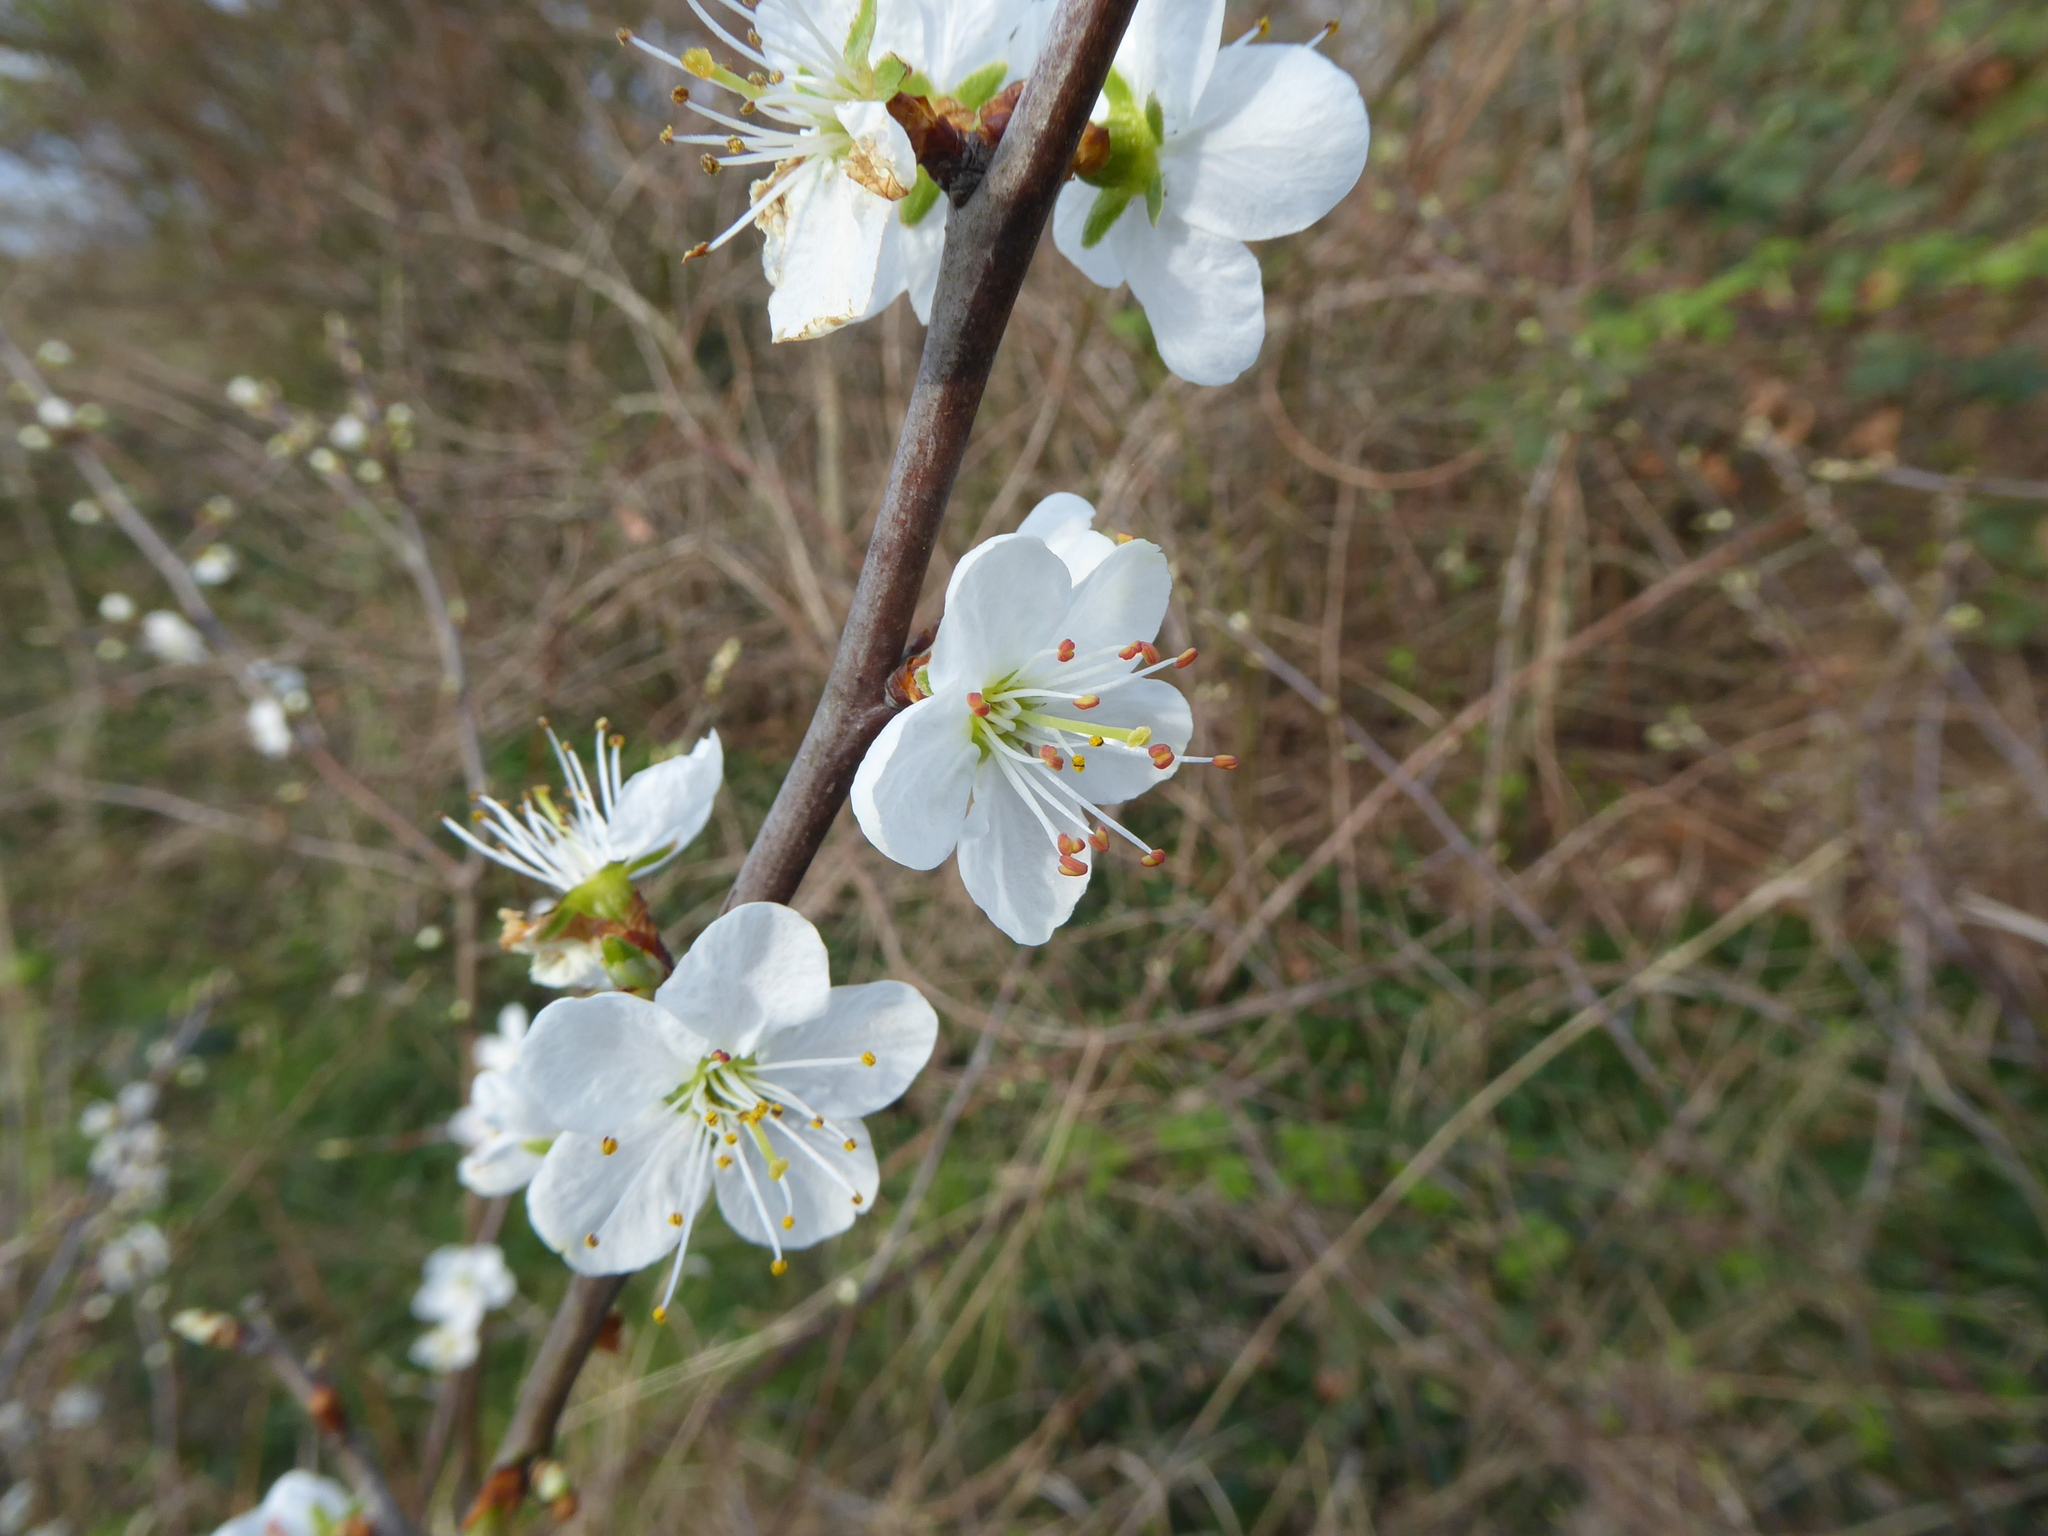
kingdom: Plantae
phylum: Tracheophyta
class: Magnoliopsida
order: Rosales
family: Rosaceae
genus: Prunus
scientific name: Prunus spinosa
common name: Blackthorn
